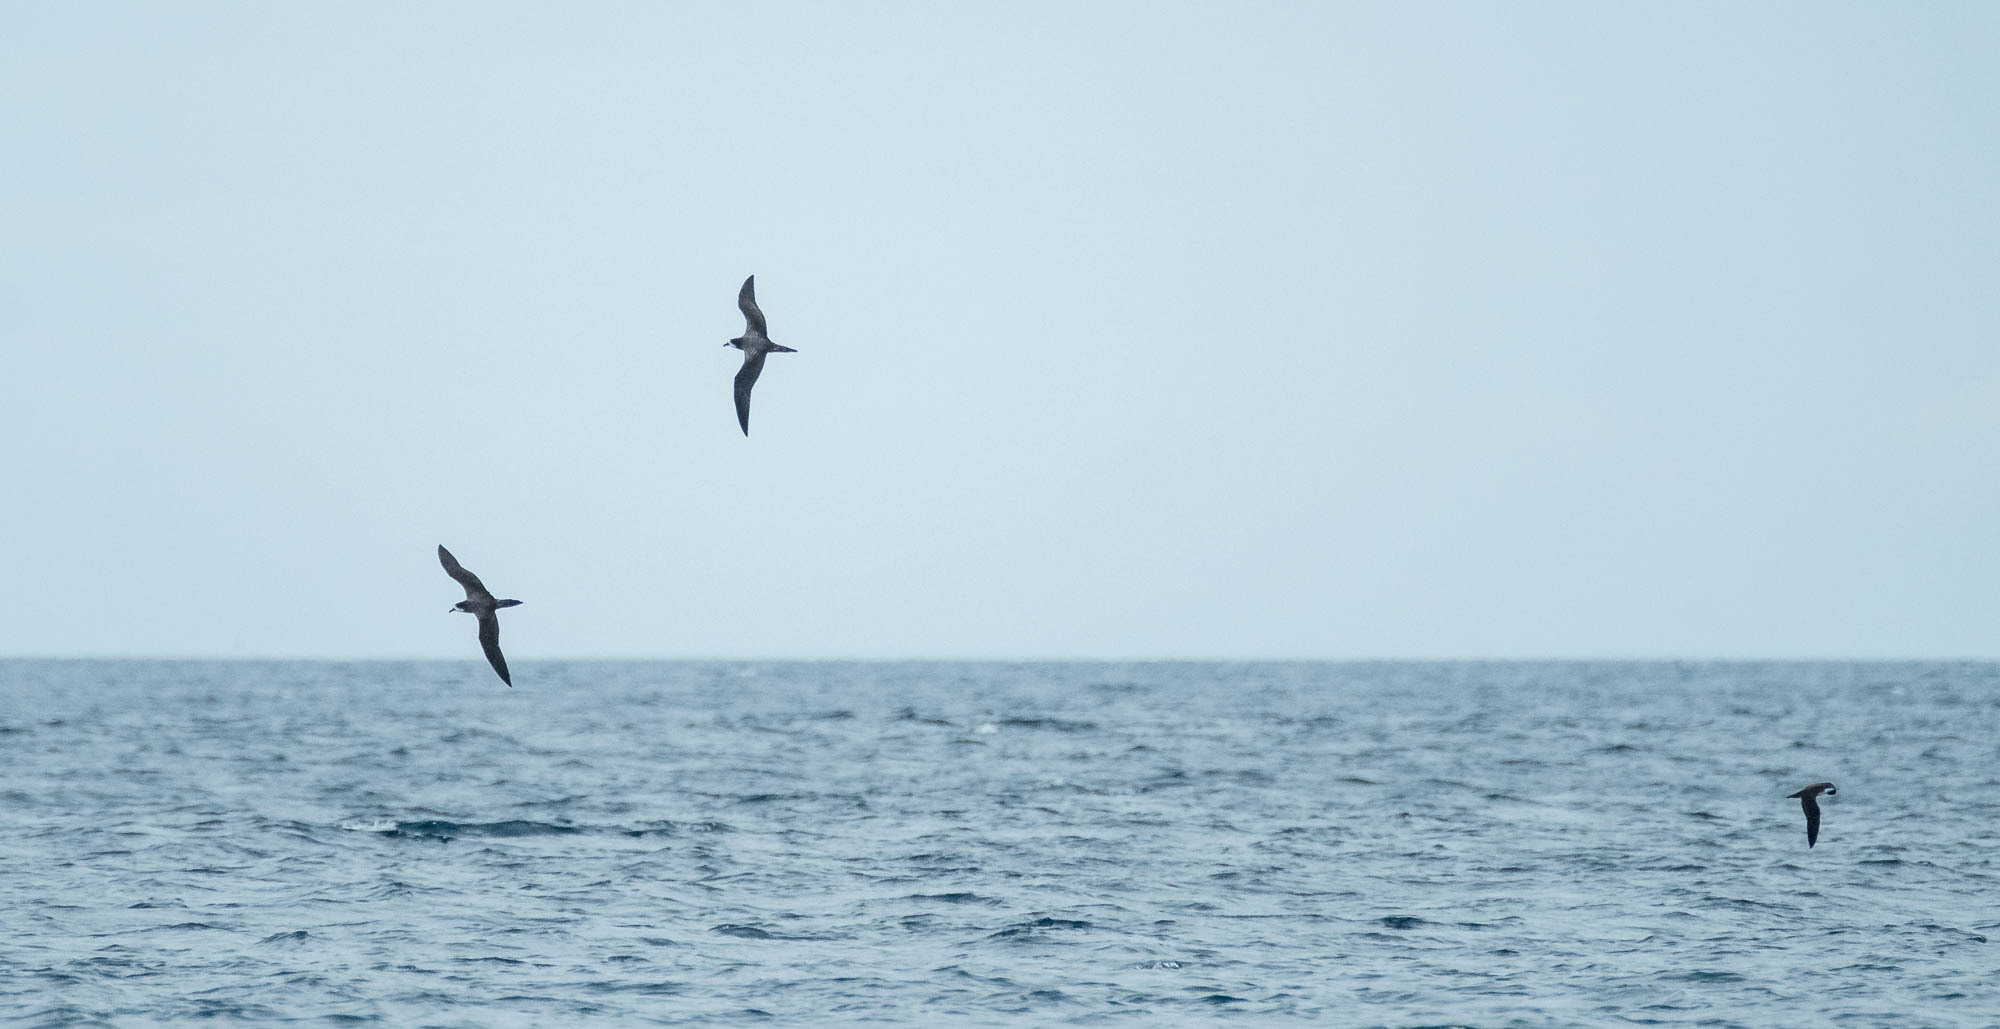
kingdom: Animalia
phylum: Chordata
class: Aves
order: Procellariiformes
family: Procellariidae
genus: Puffinus
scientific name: Puffinus subalaris
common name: Galapagos shearwater
